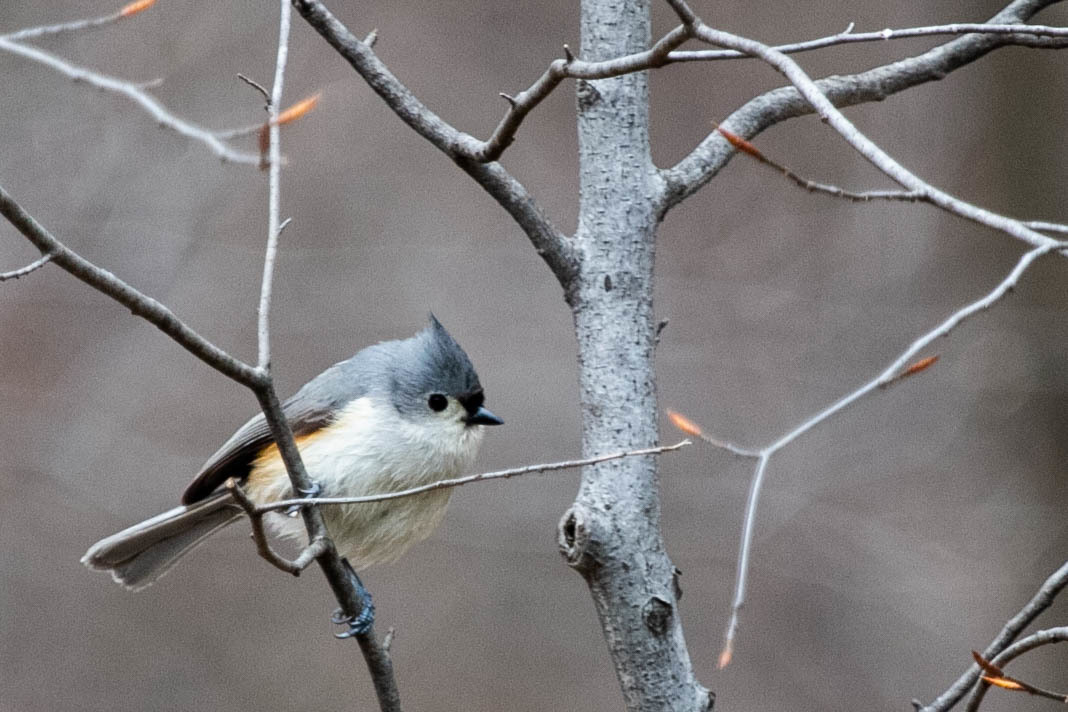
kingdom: Animalia
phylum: Chordata
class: Aves
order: Passeriformes
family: Paridae
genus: Baeolophus
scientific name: Baeolophus bicolor
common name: Tufted titmouse
